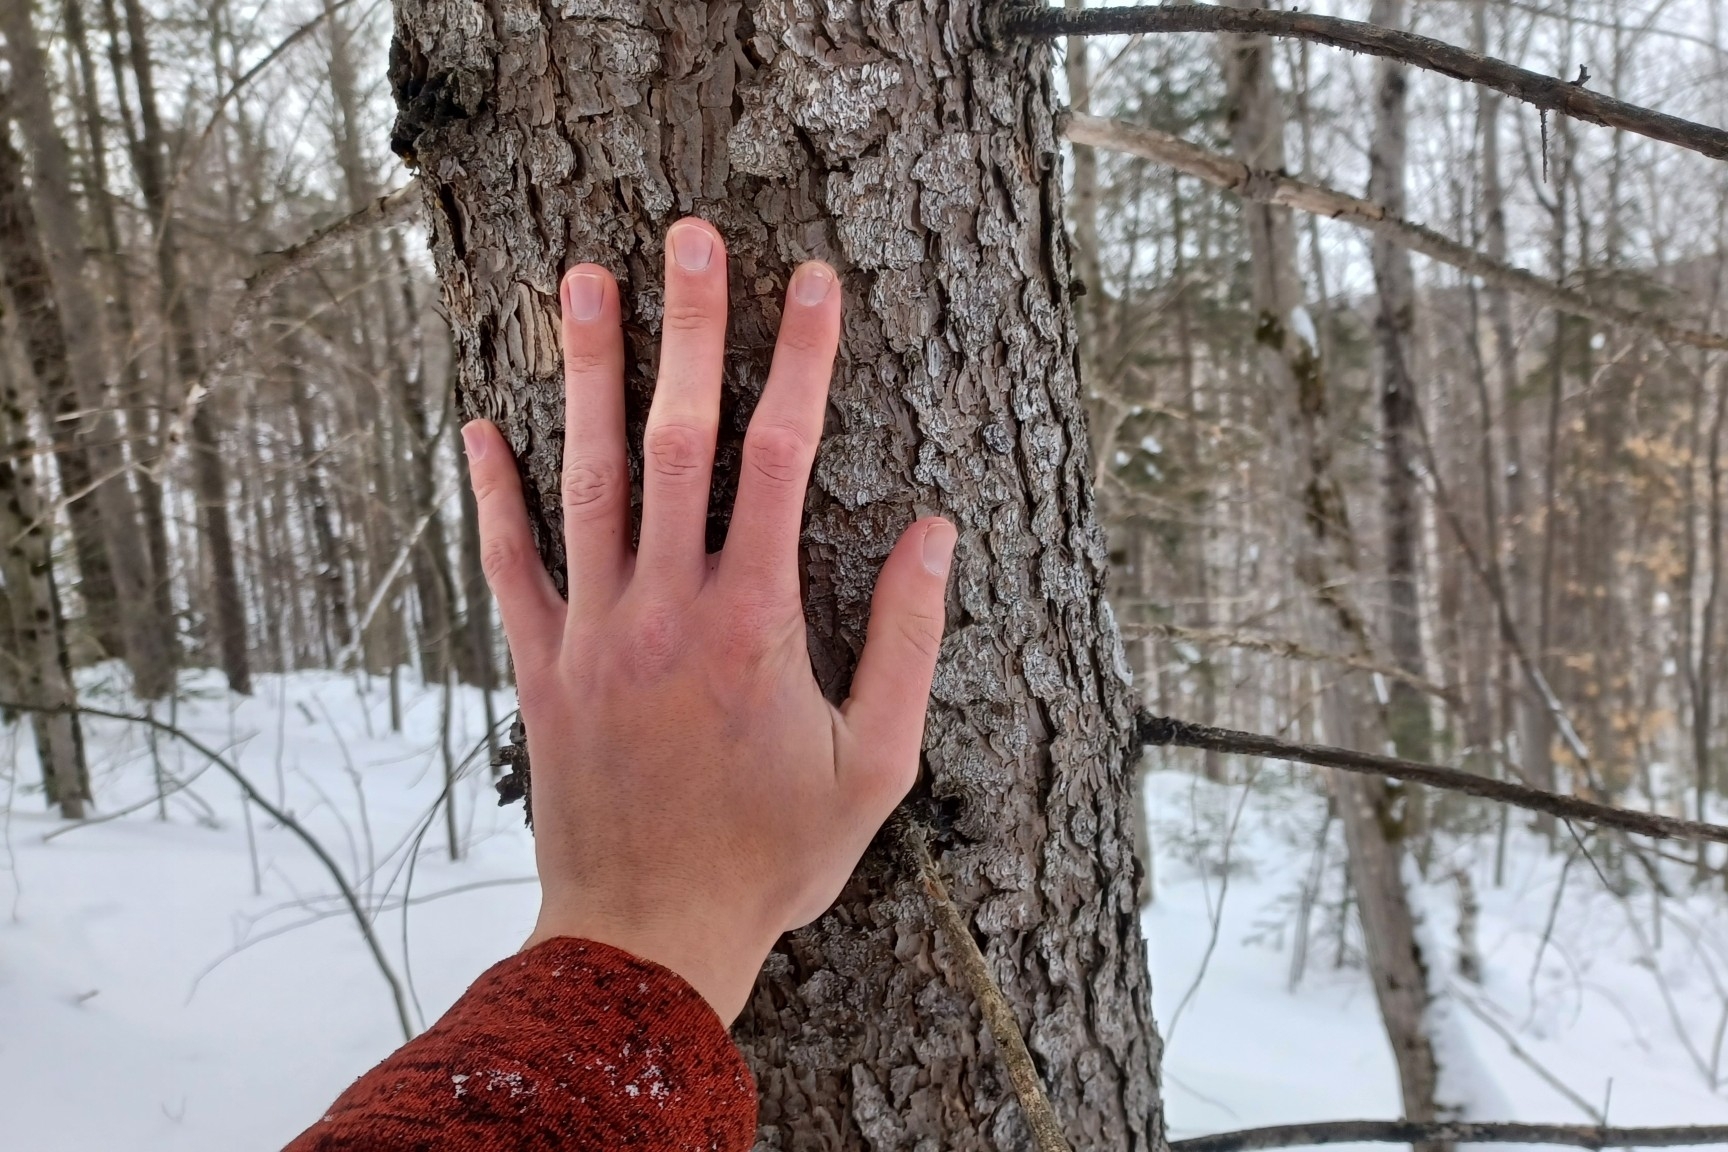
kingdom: Plantae
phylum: Tracheophyta
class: Pinopsida
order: Pinales
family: Pinaceae
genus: Picea
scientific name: Picea rubens
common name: Red spruce
